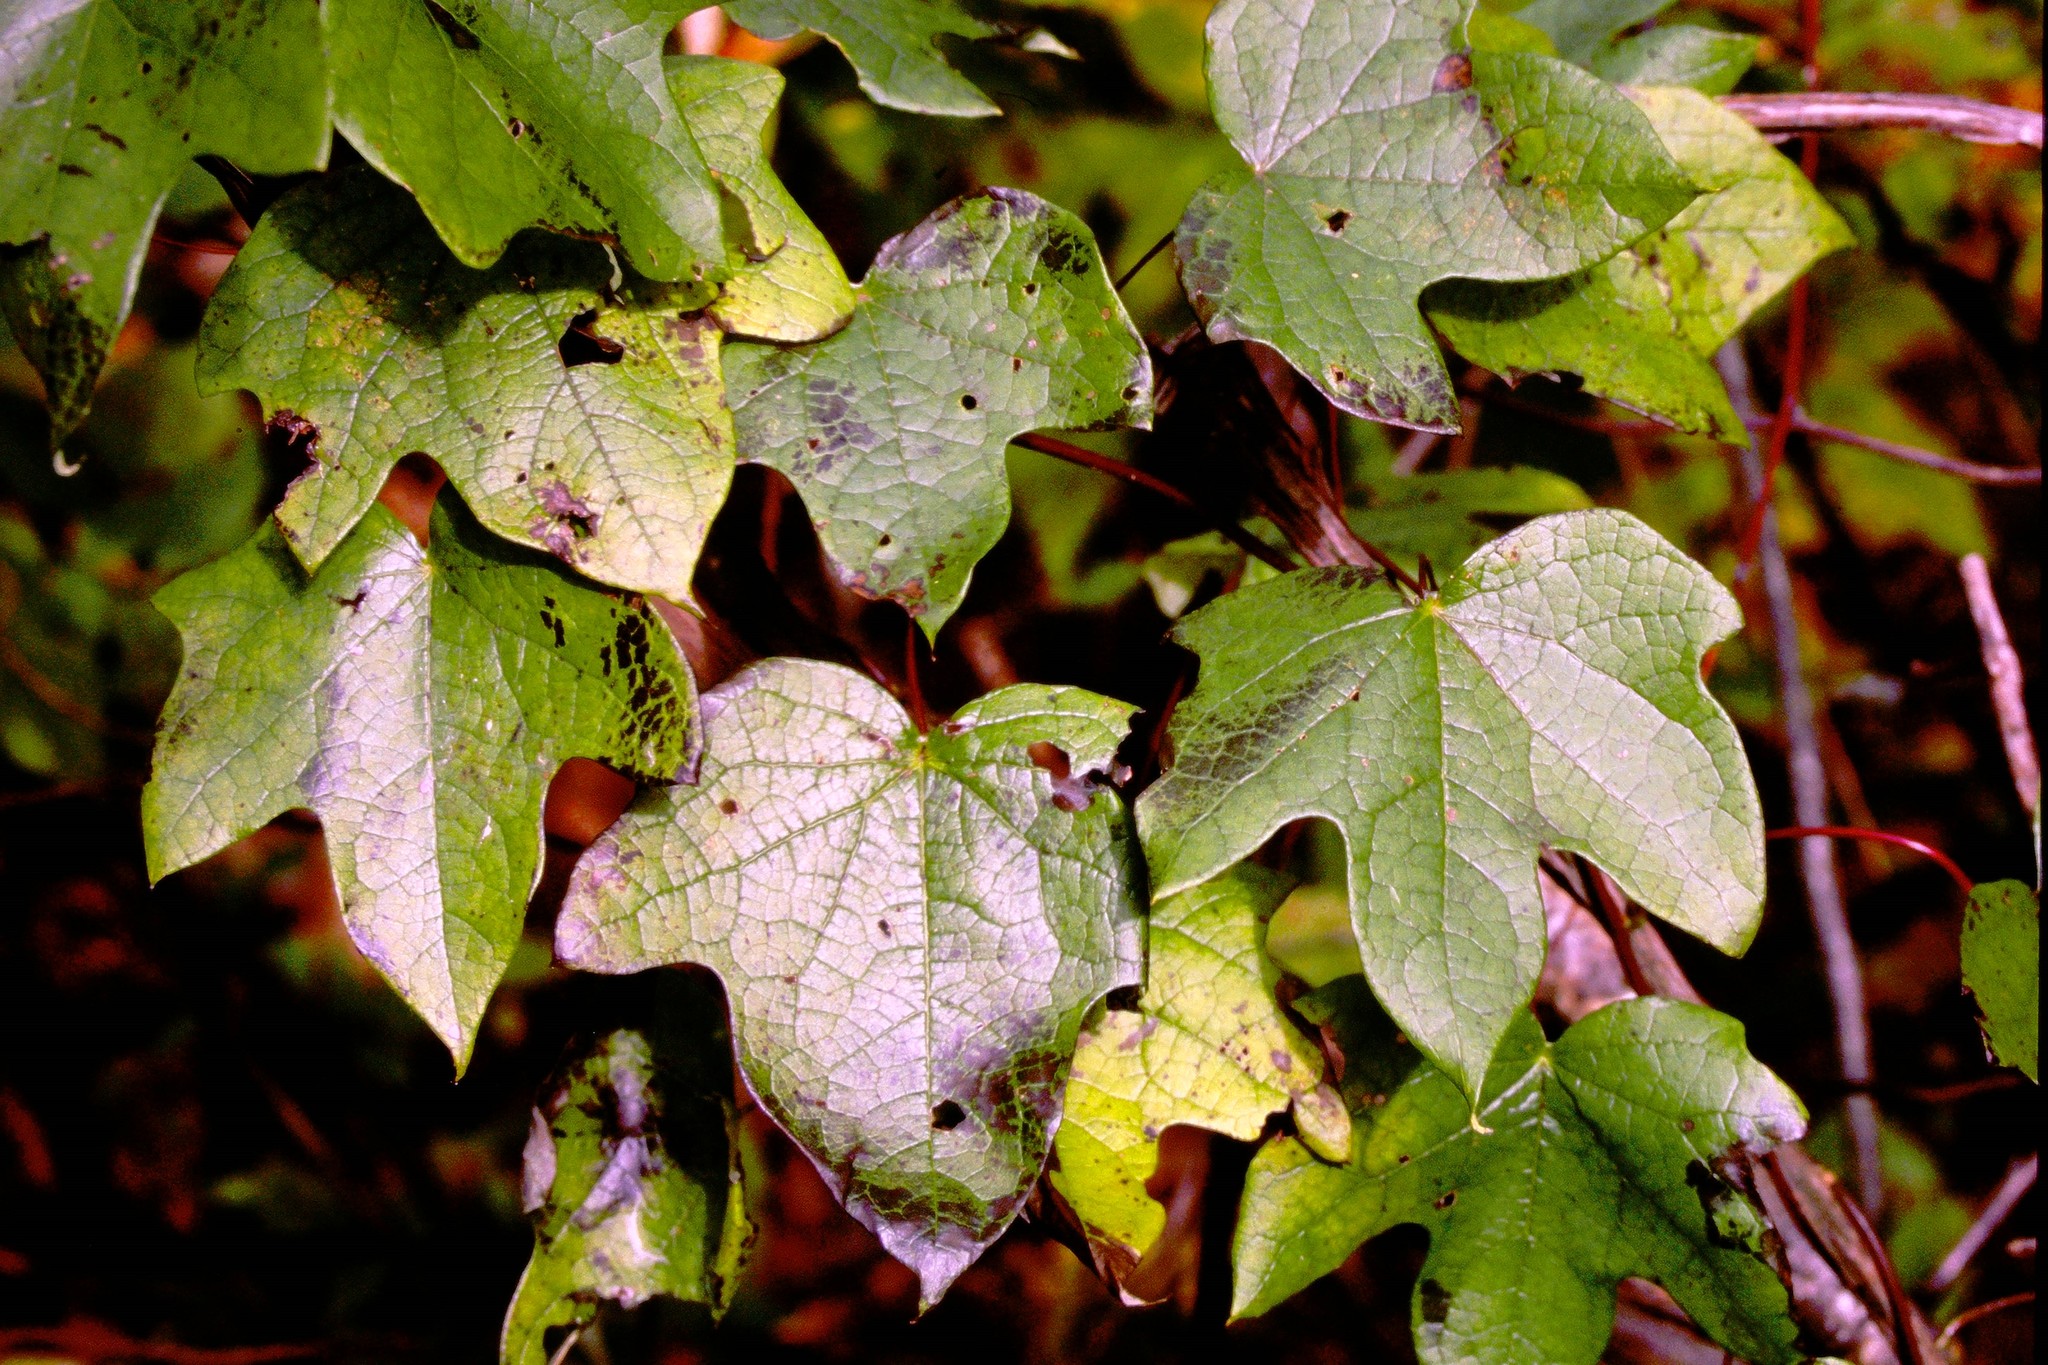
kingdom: Plantae
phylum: Tracheophyta
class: Magnoliopsida
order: Ranunculales
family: Menispermaceae
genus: Menispermum
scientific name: Menispermum canadense
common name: Moonseed
